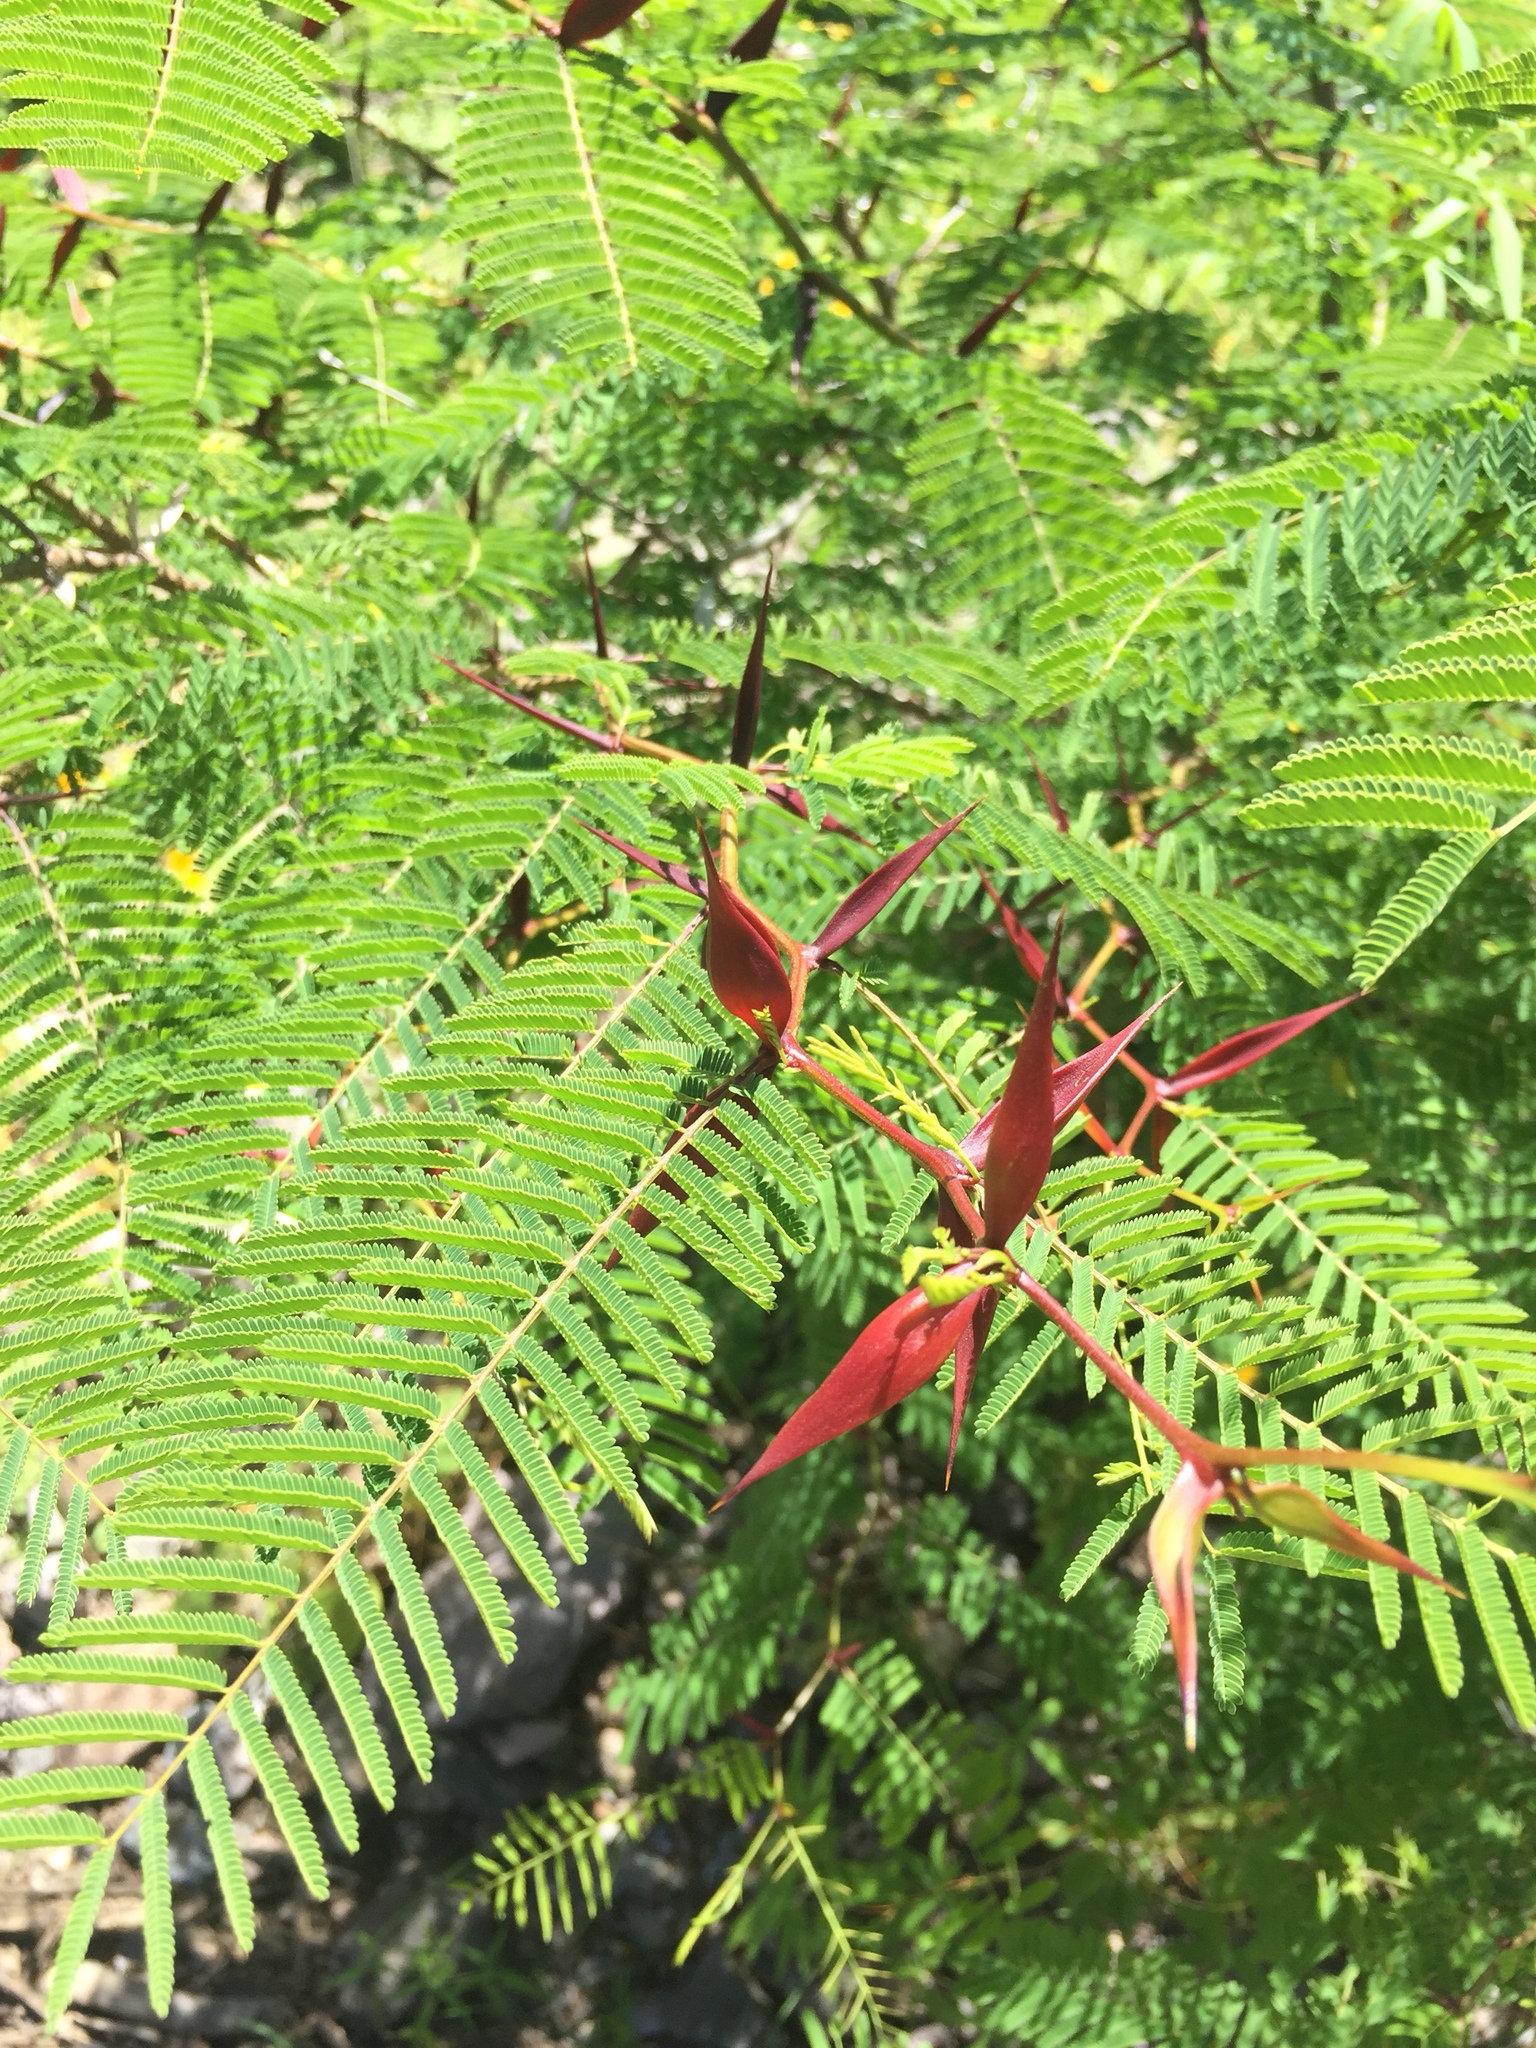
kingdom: Plantae
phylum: Tracheophyta
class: Magnoliopsida
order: Fabales
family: Fabaceae
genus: Vachellia
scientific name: Vachellia campechiana
